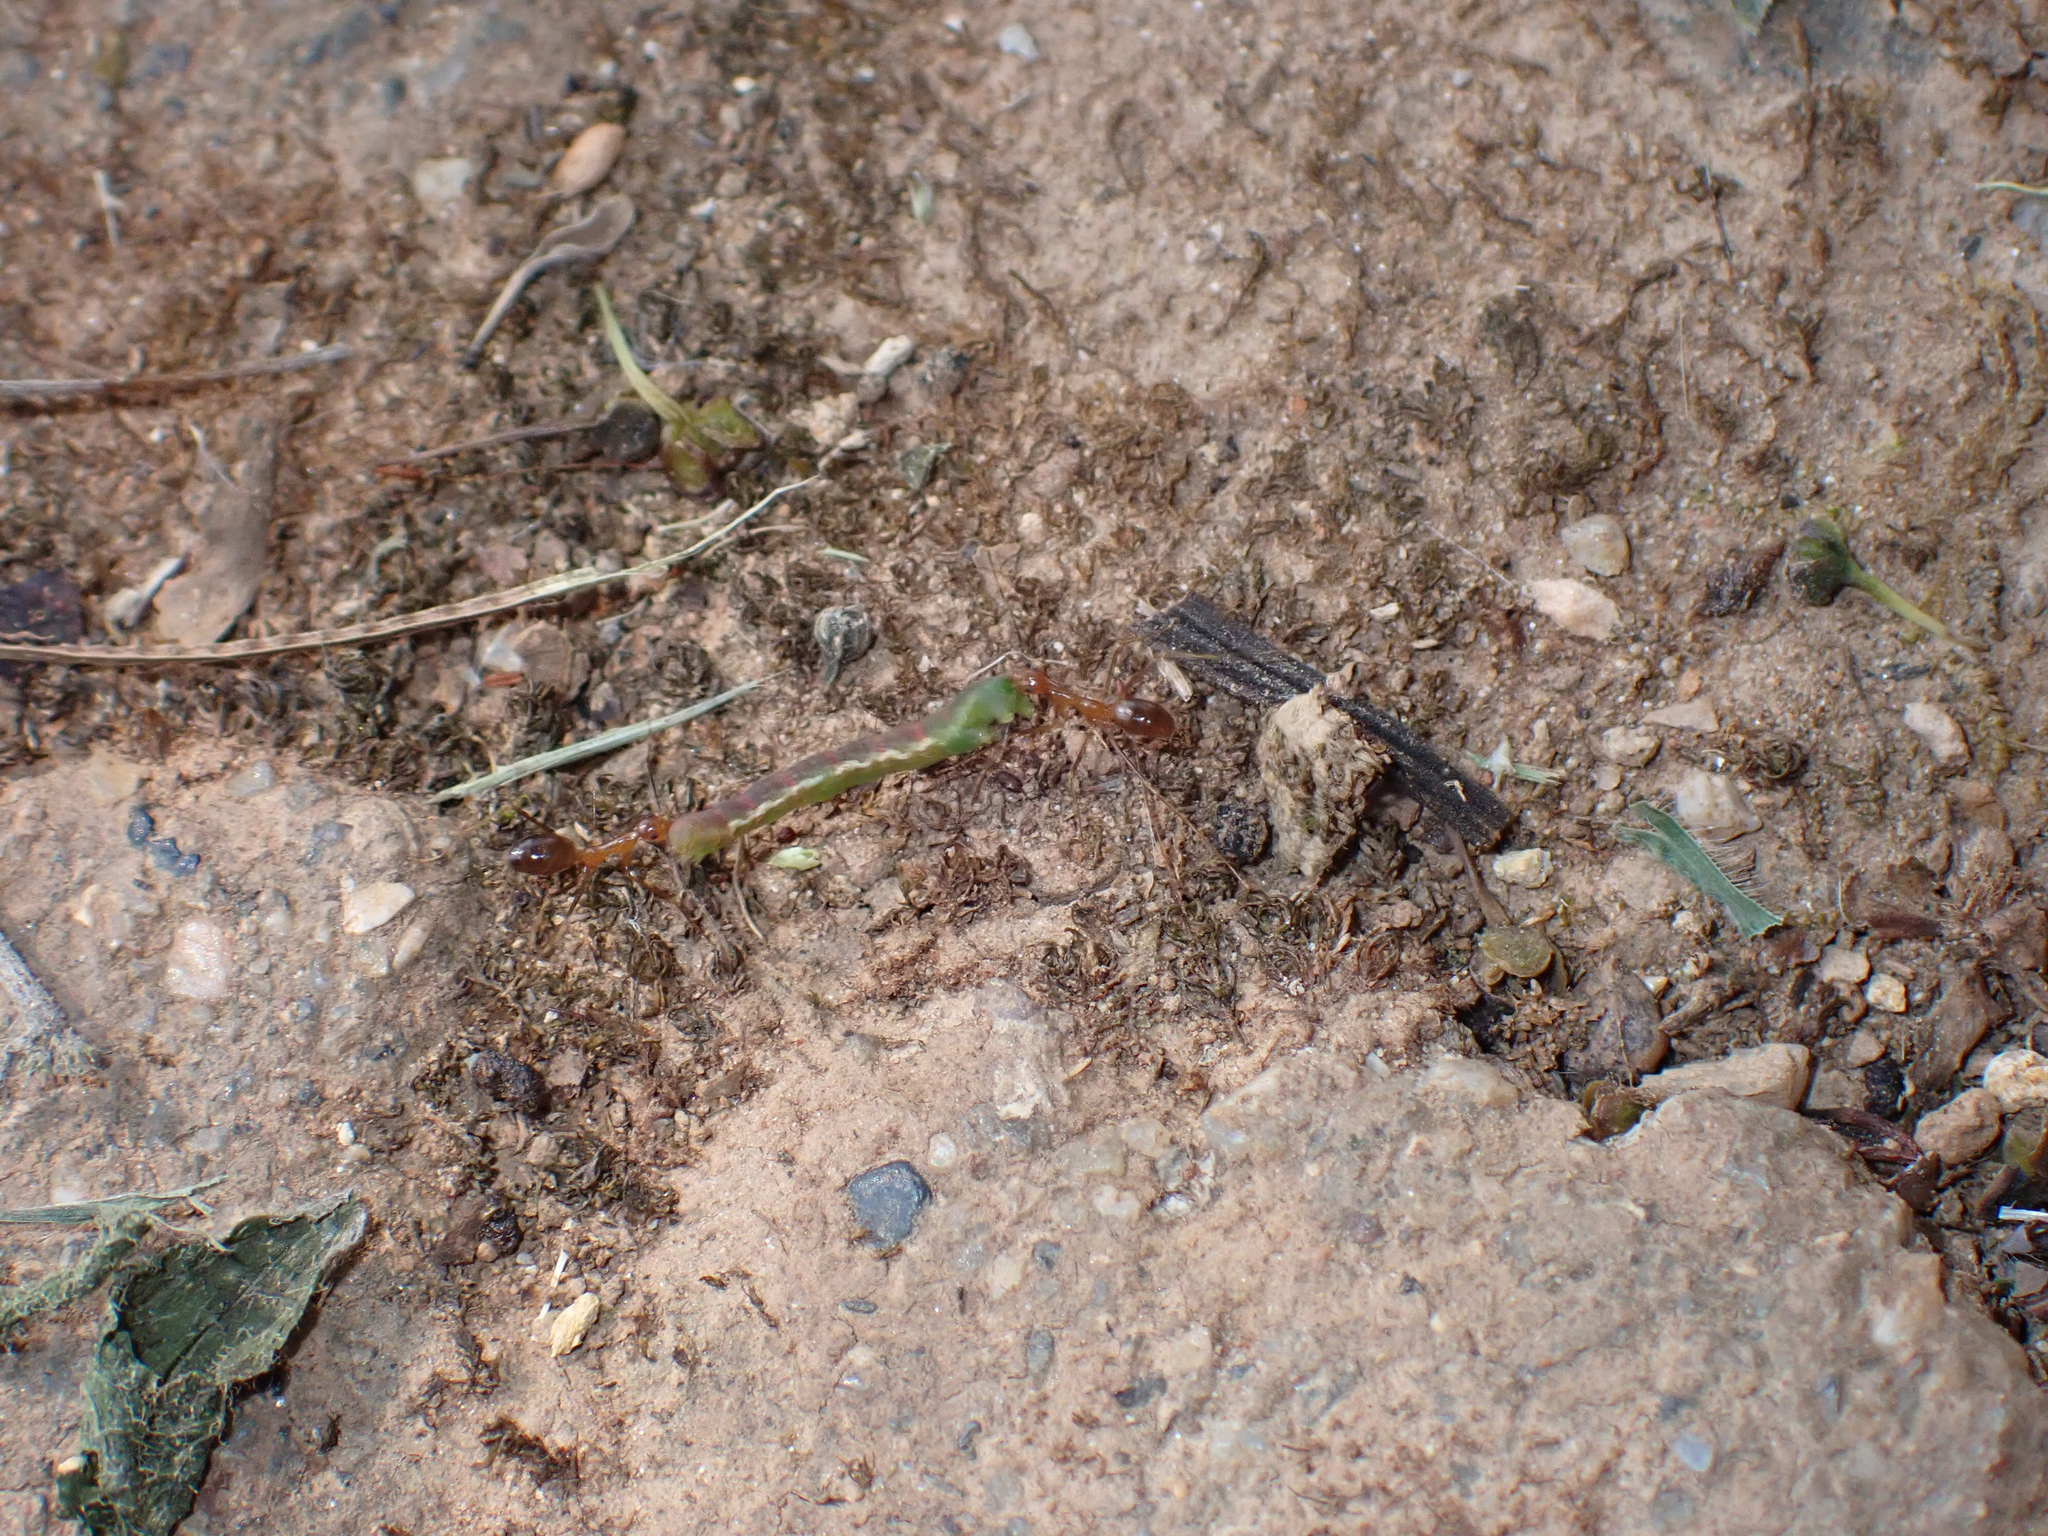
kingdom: Animalia
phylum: Arthropoda
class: Insecta
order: Hymenoptera
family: Formicidae
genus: Anoplolepis
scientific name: Anoplolepis gracilipes
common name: Ant
